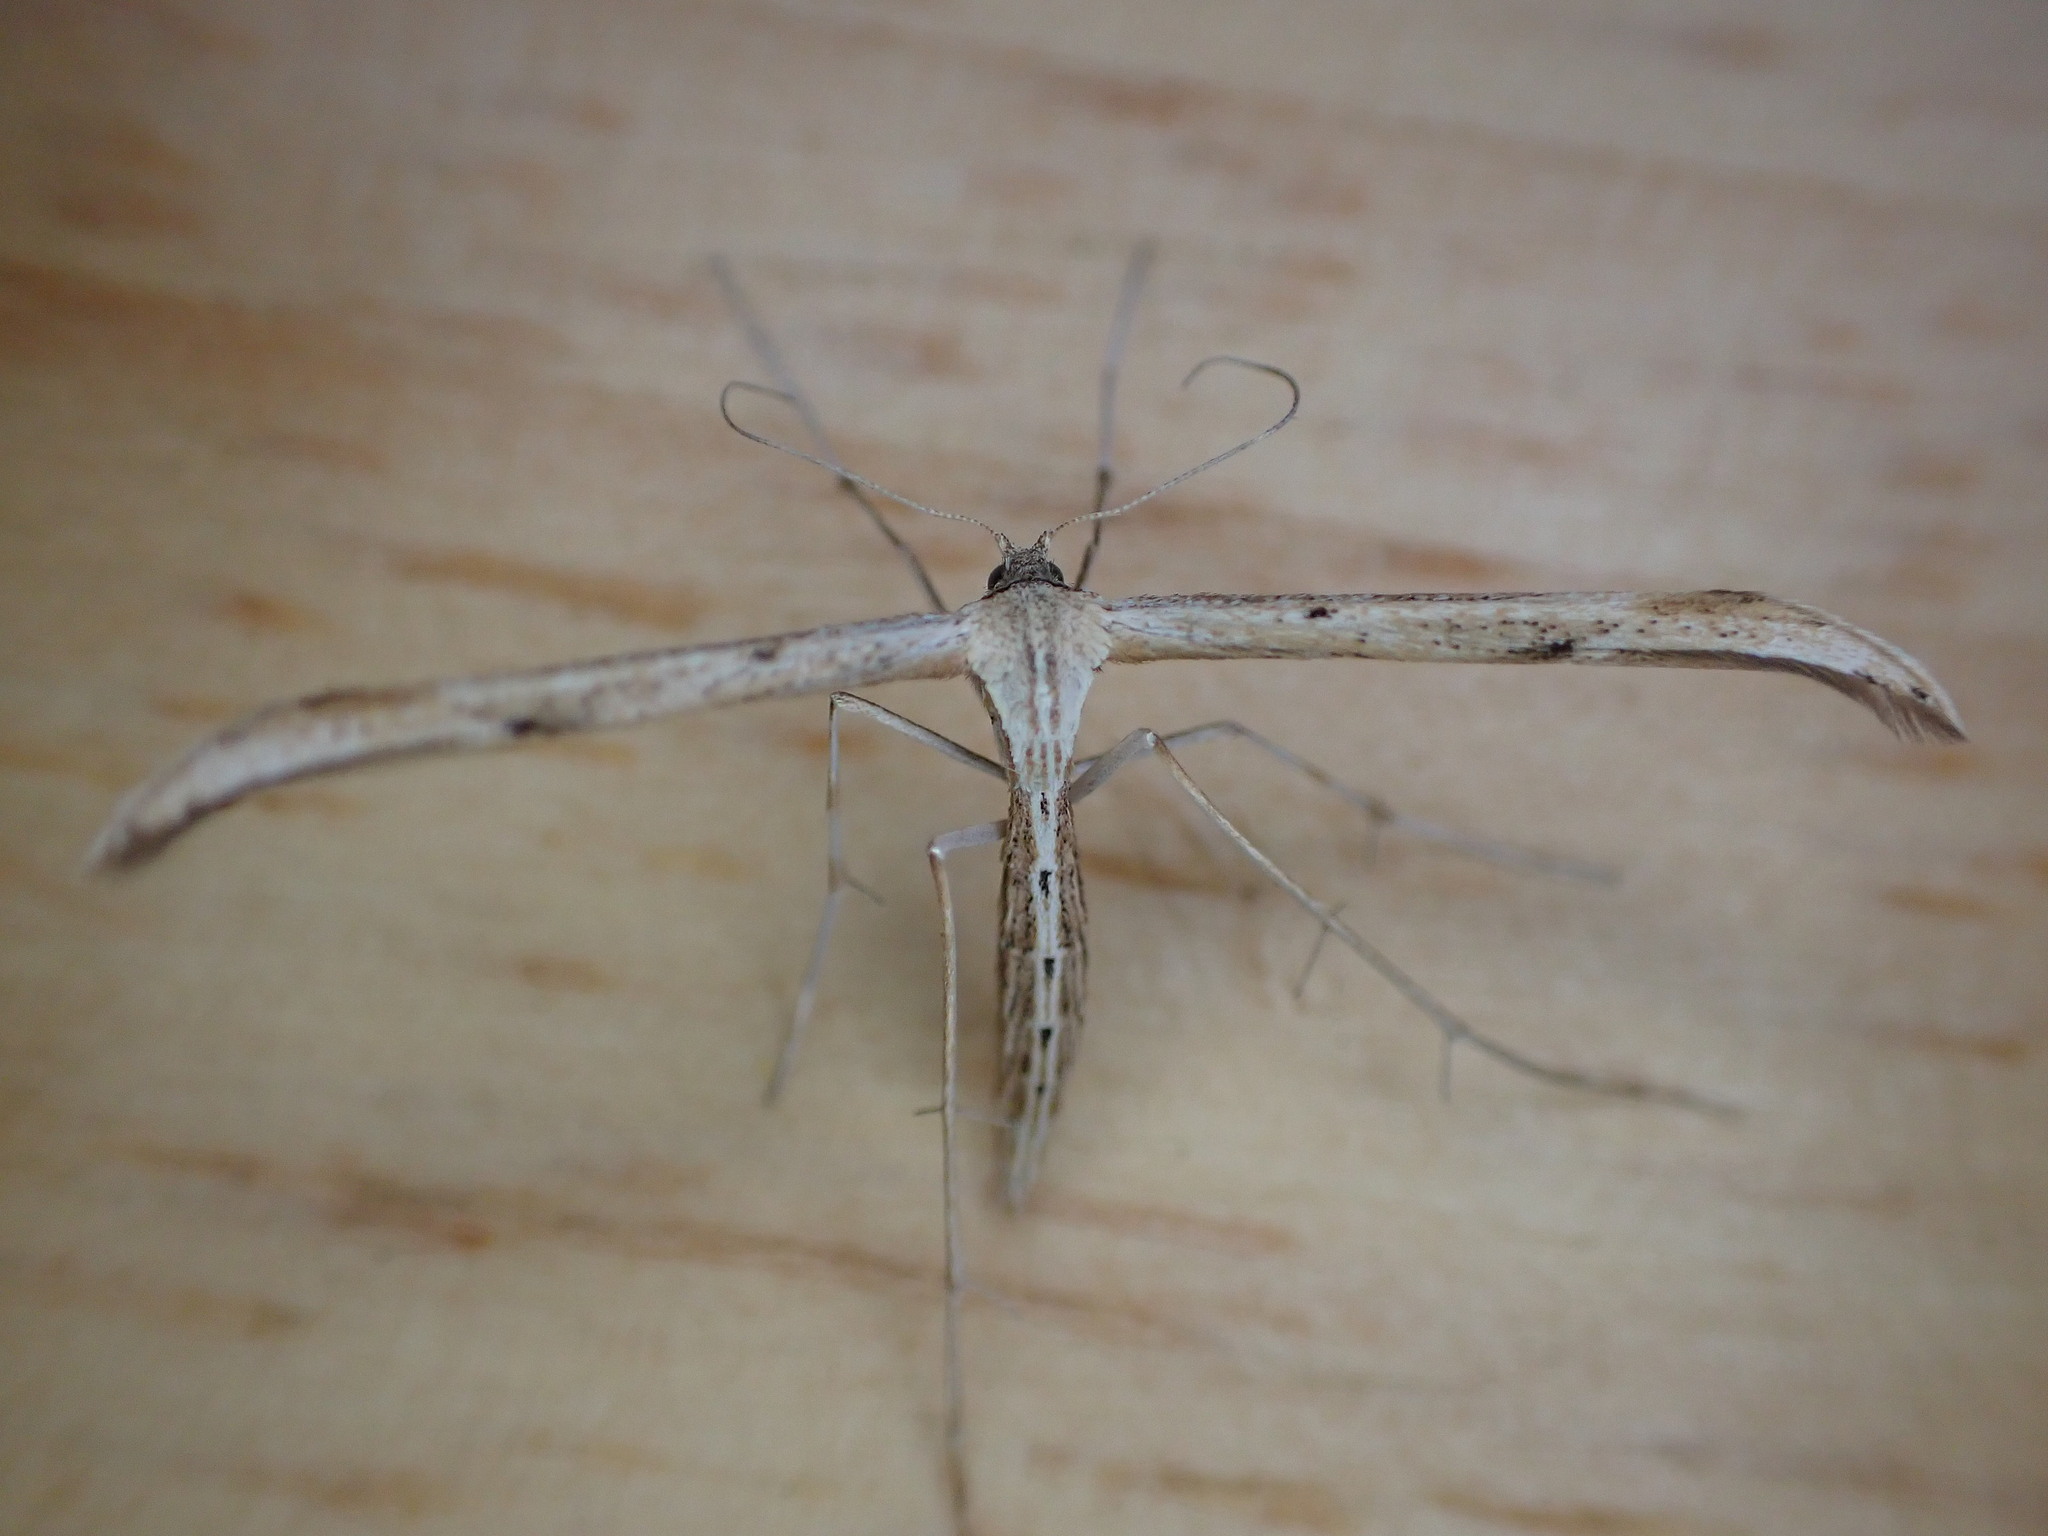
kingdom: Animalia
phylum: Arthropoda
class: Insecta
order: Lepidoptera
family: Pterophoridae
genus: Emmelina
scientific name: Emmelina monodactyla
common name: Common plume
